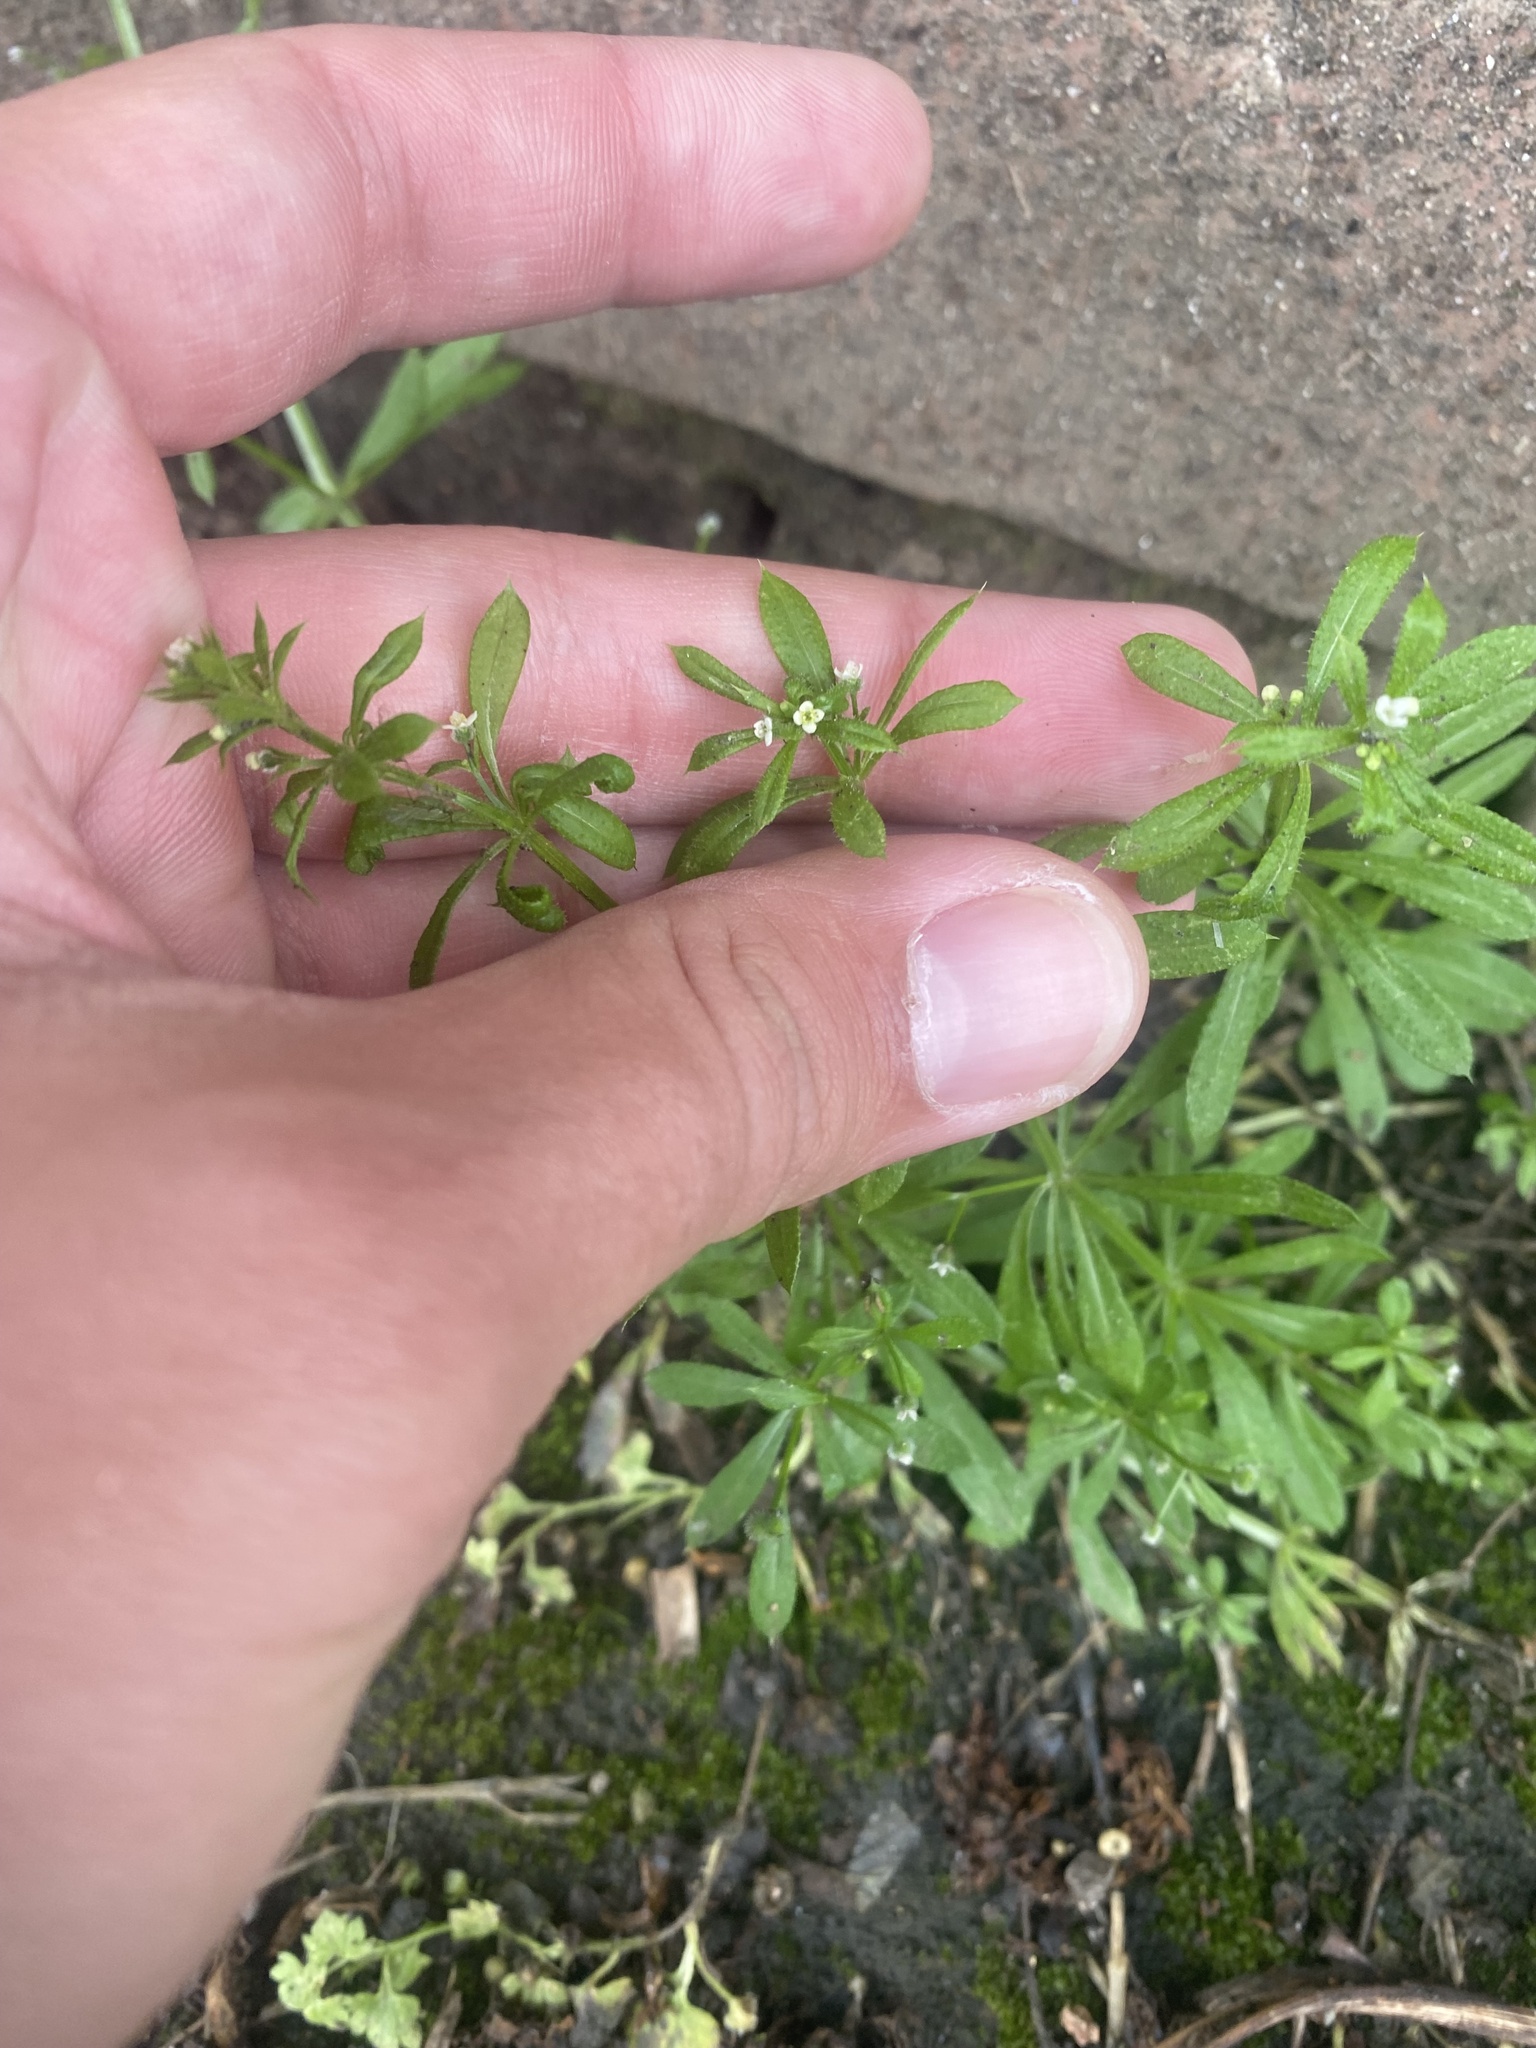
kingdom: Plantae
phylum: Tracheophyta
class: Magnoliopsida
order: Gentianales
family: Rubiaceae
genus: Galium
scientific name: Galium aparine
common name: Cleavers
